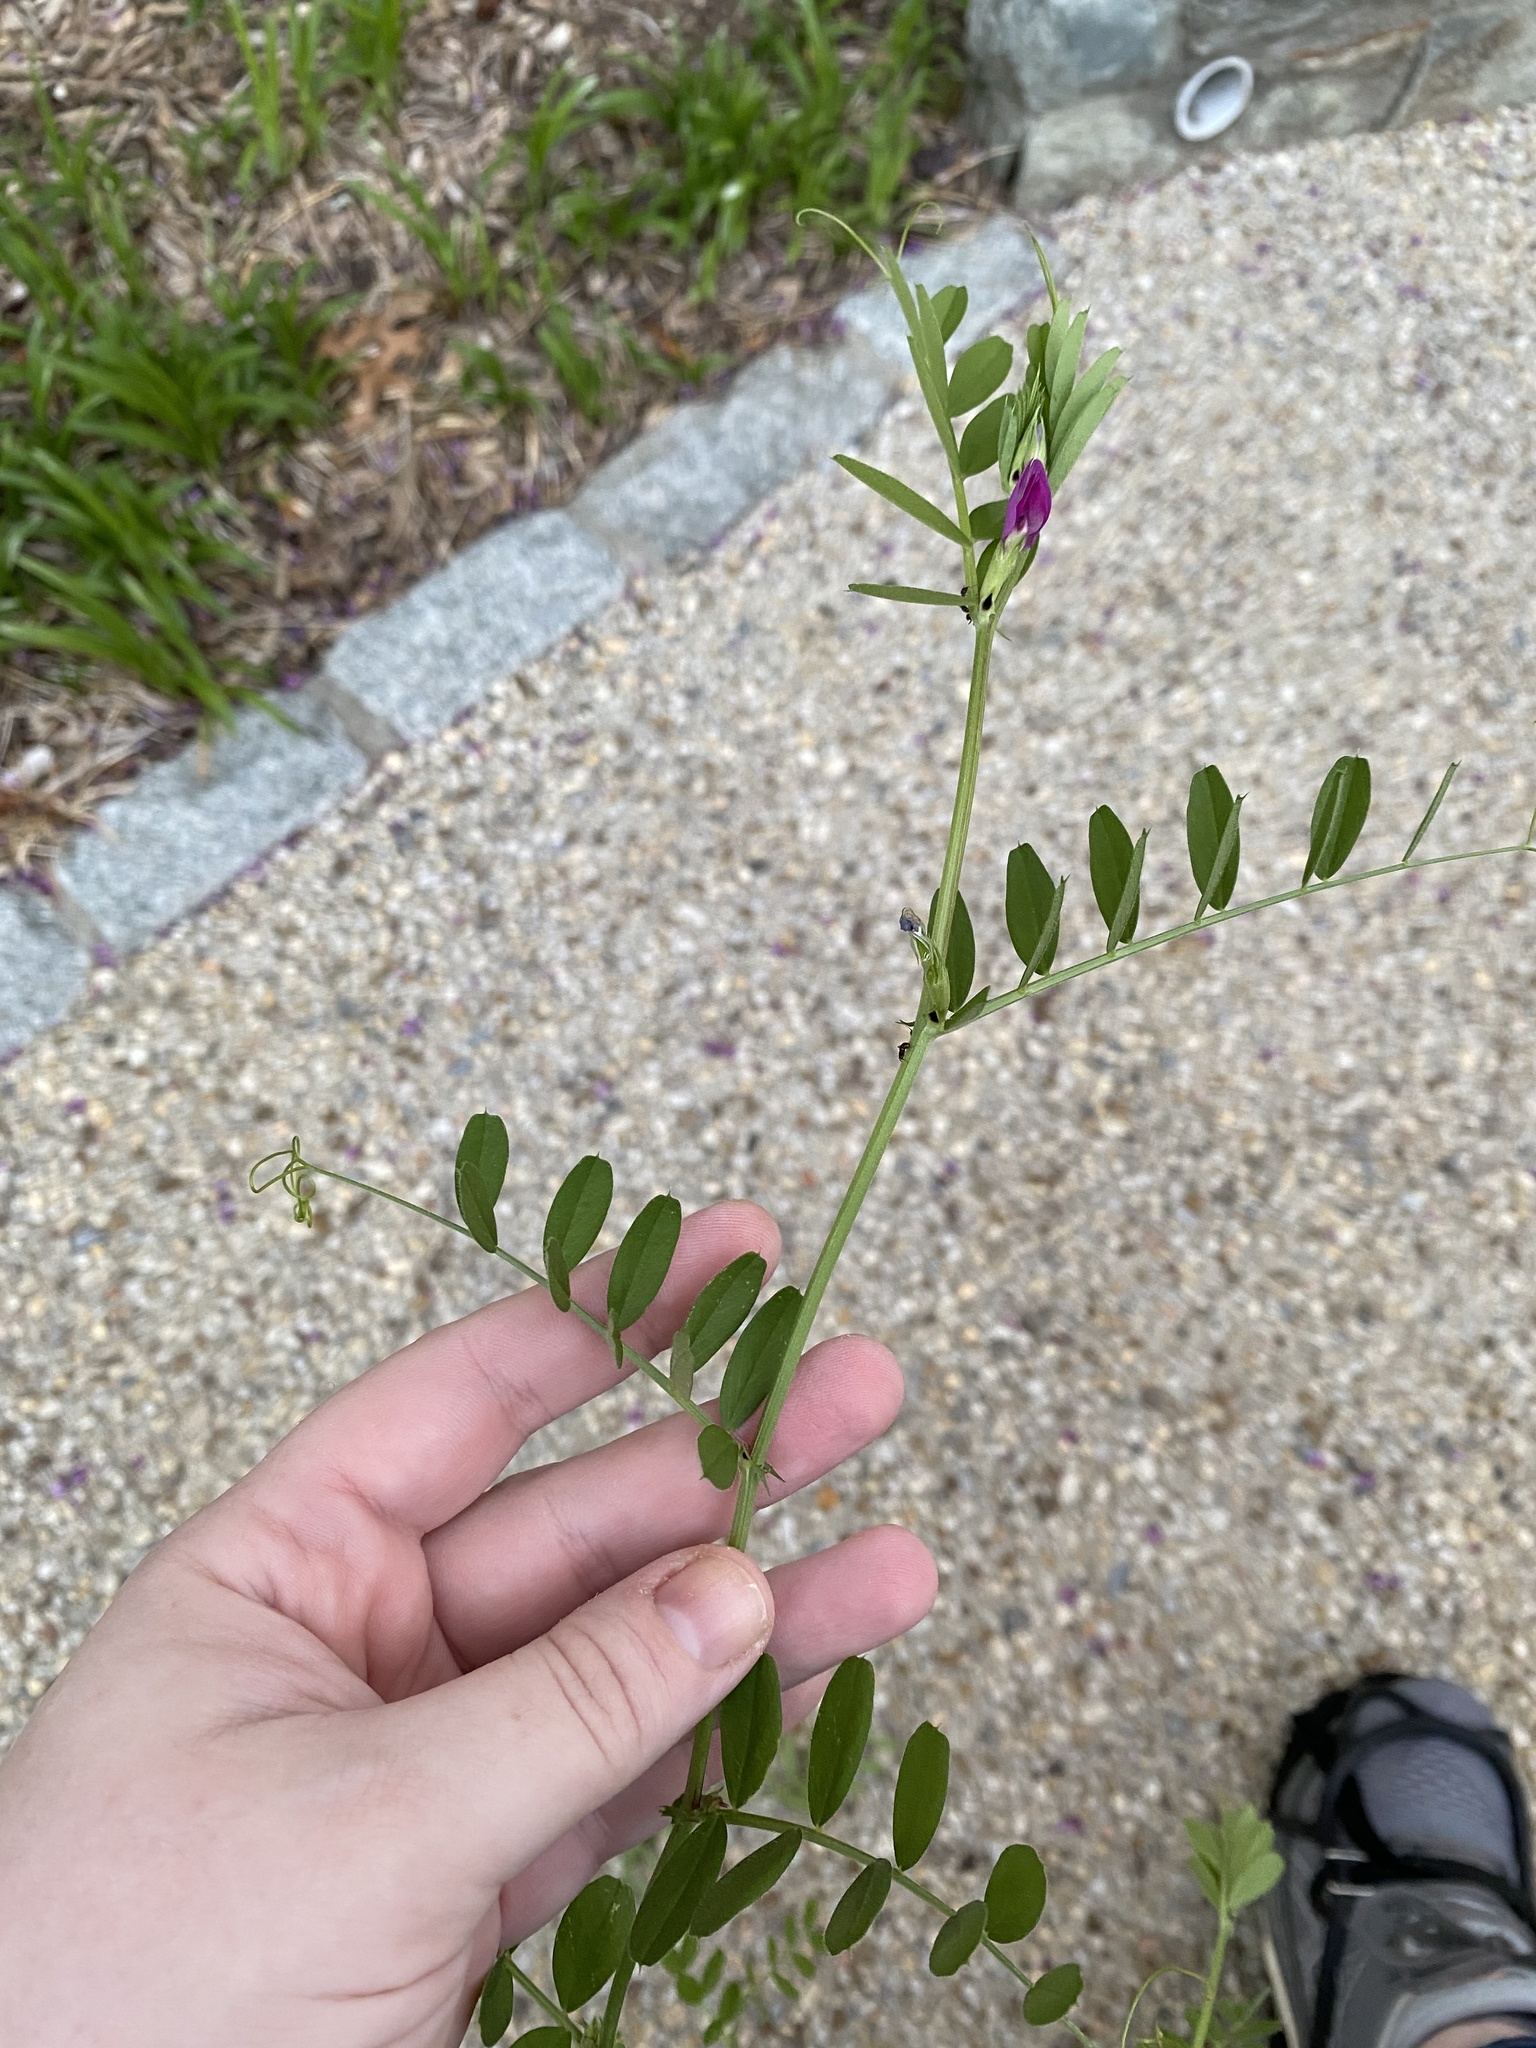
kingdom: Plantae
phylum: Tracheophyta
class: Magnoliopsida
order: Fabales
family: Fabaceae
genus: Vicia
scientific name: Vicia sativa
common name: Garden vetch
